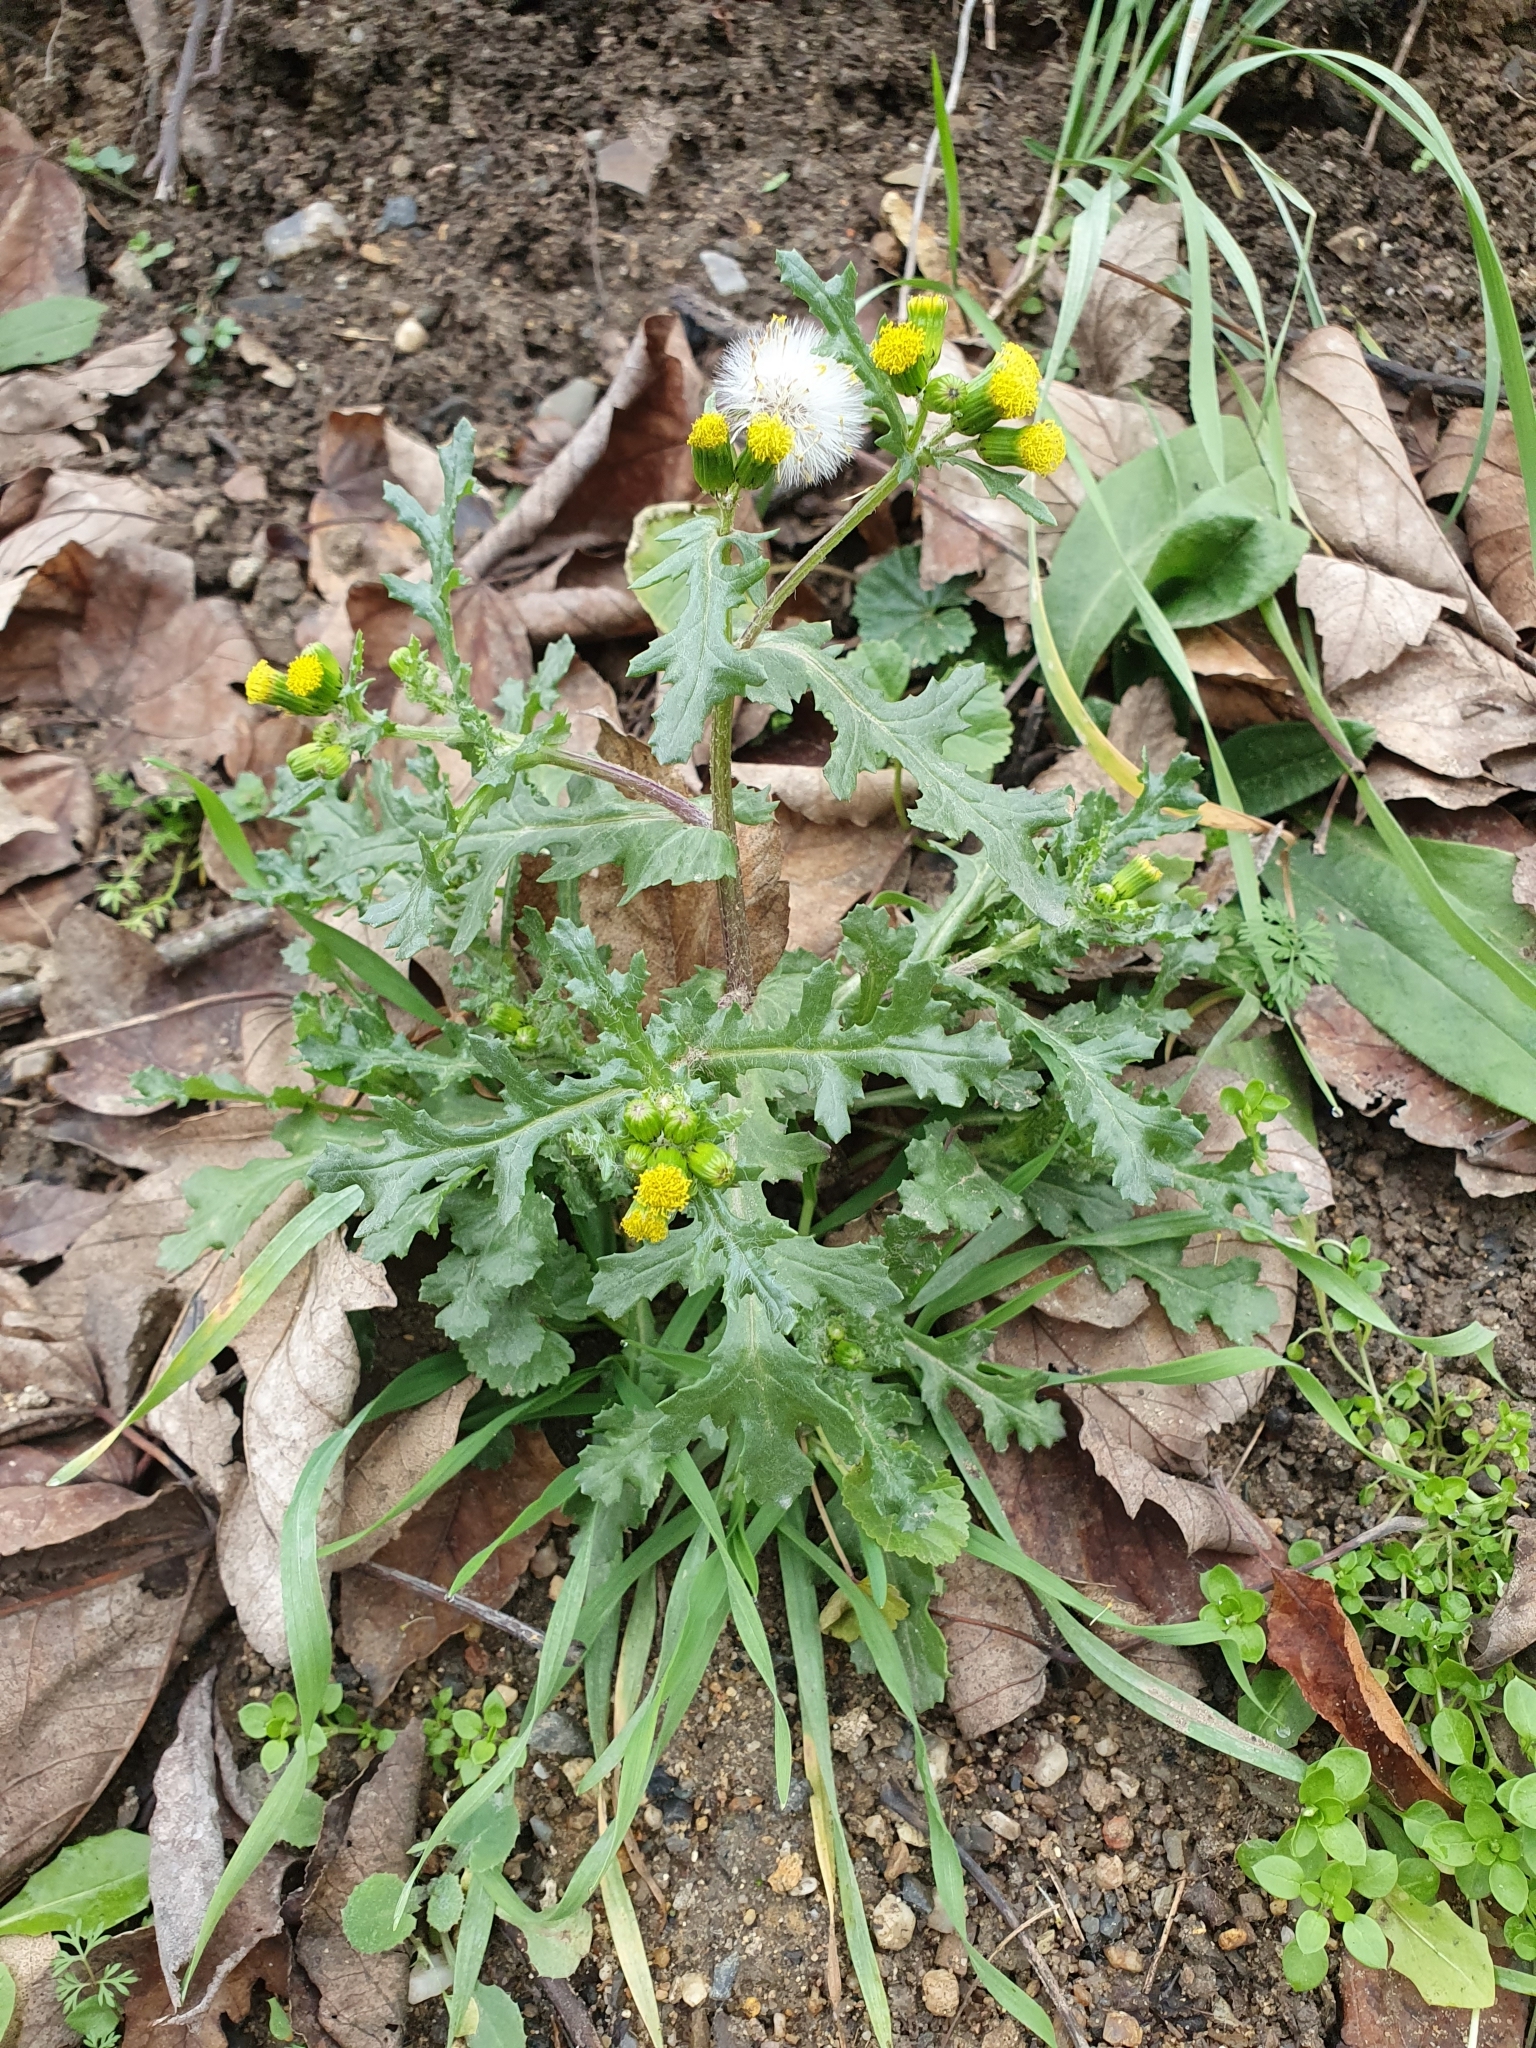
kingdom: Plantae
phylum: Tracheophyta
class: Magnoliopsida
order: Asterales
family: Asteraceae
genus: Senecio
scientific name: Senecio vulgaris
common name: Old-man-in-the-spring
